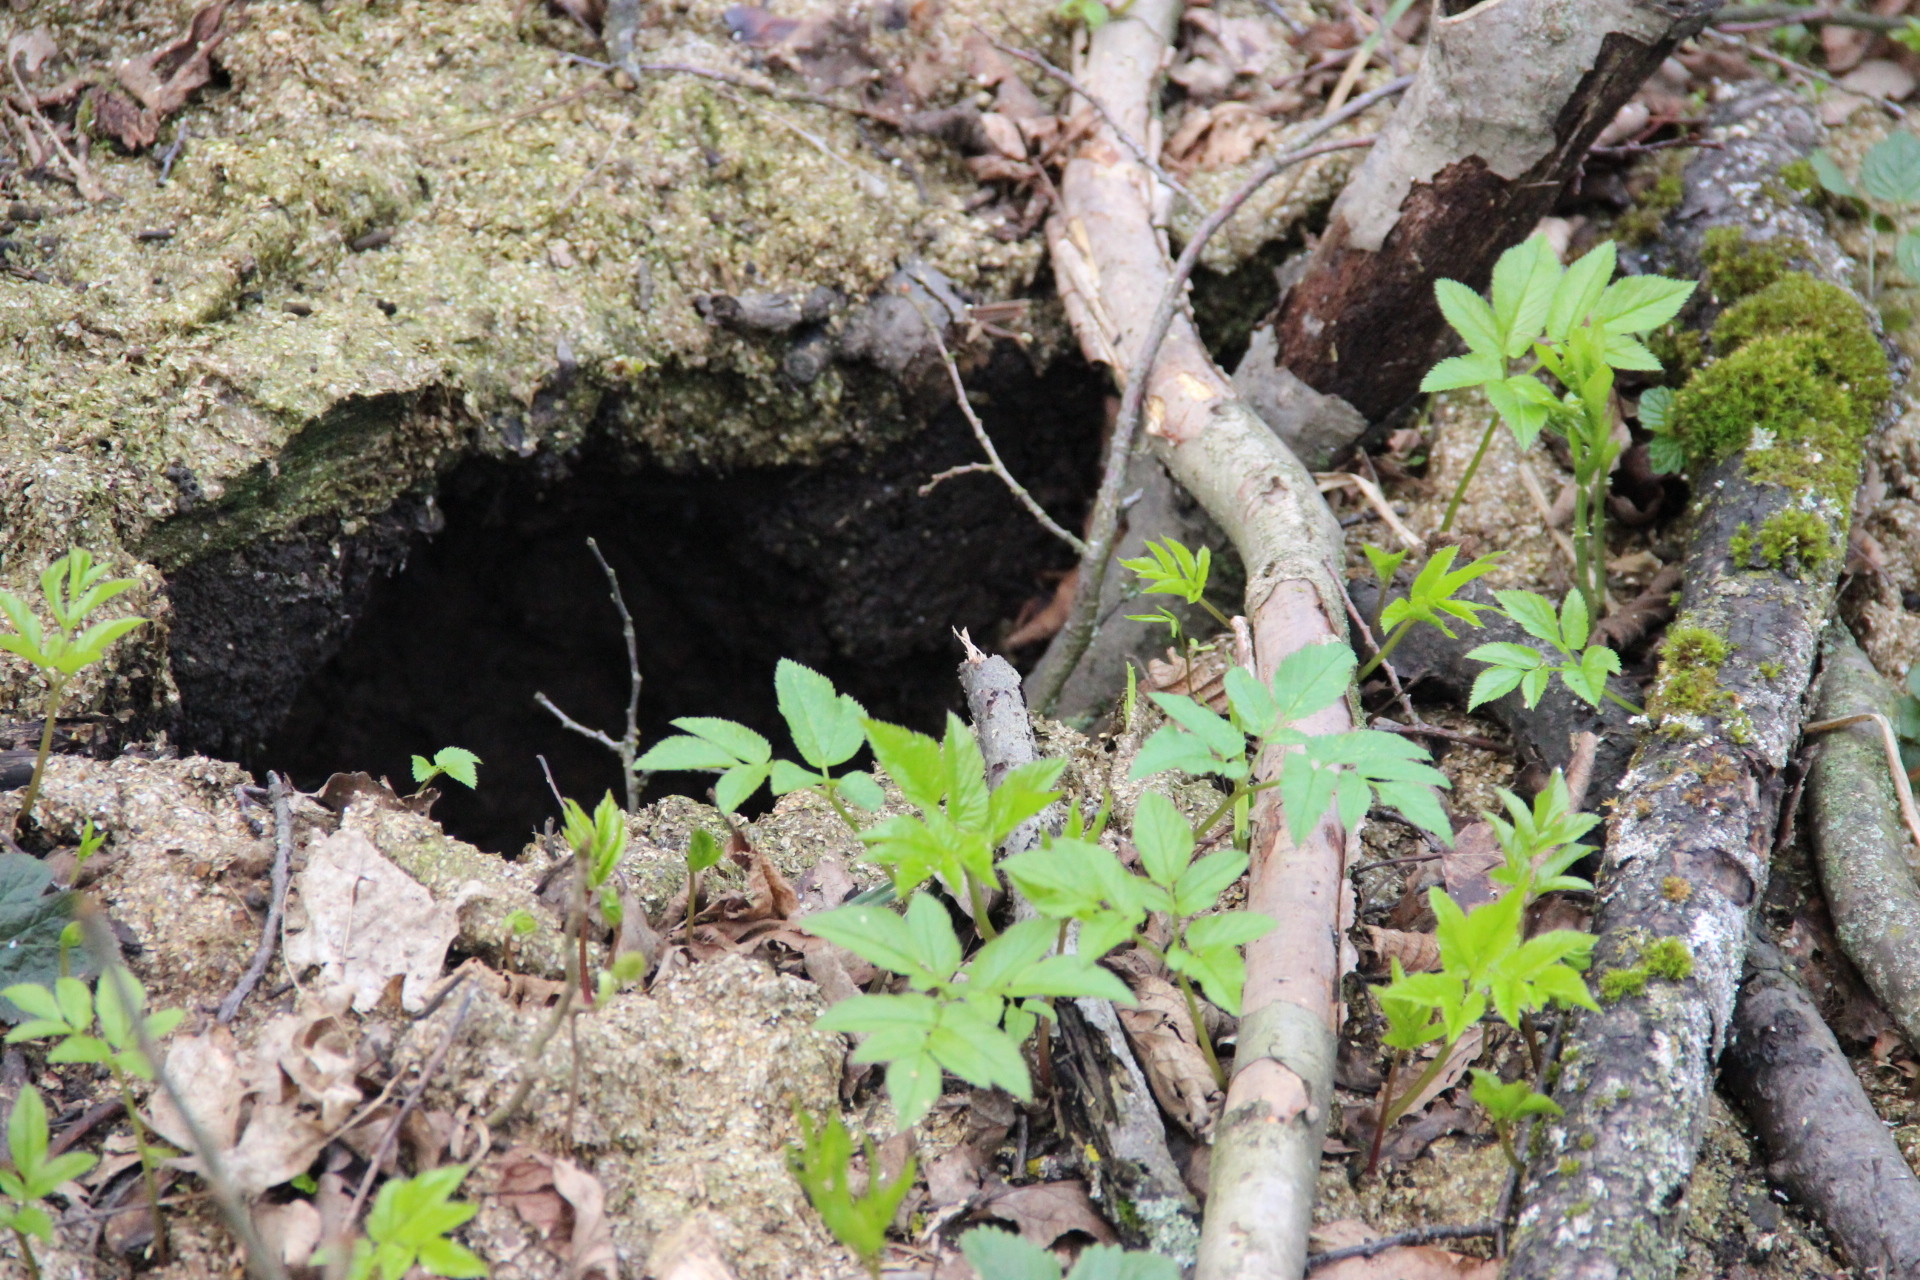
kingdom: Plantae
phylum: Tracheophyta
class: Magnoliopsida
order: Apiales
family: Apiaceae
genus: Aegopodium
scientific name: Aegopodium podagraria
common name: Ground-elder
